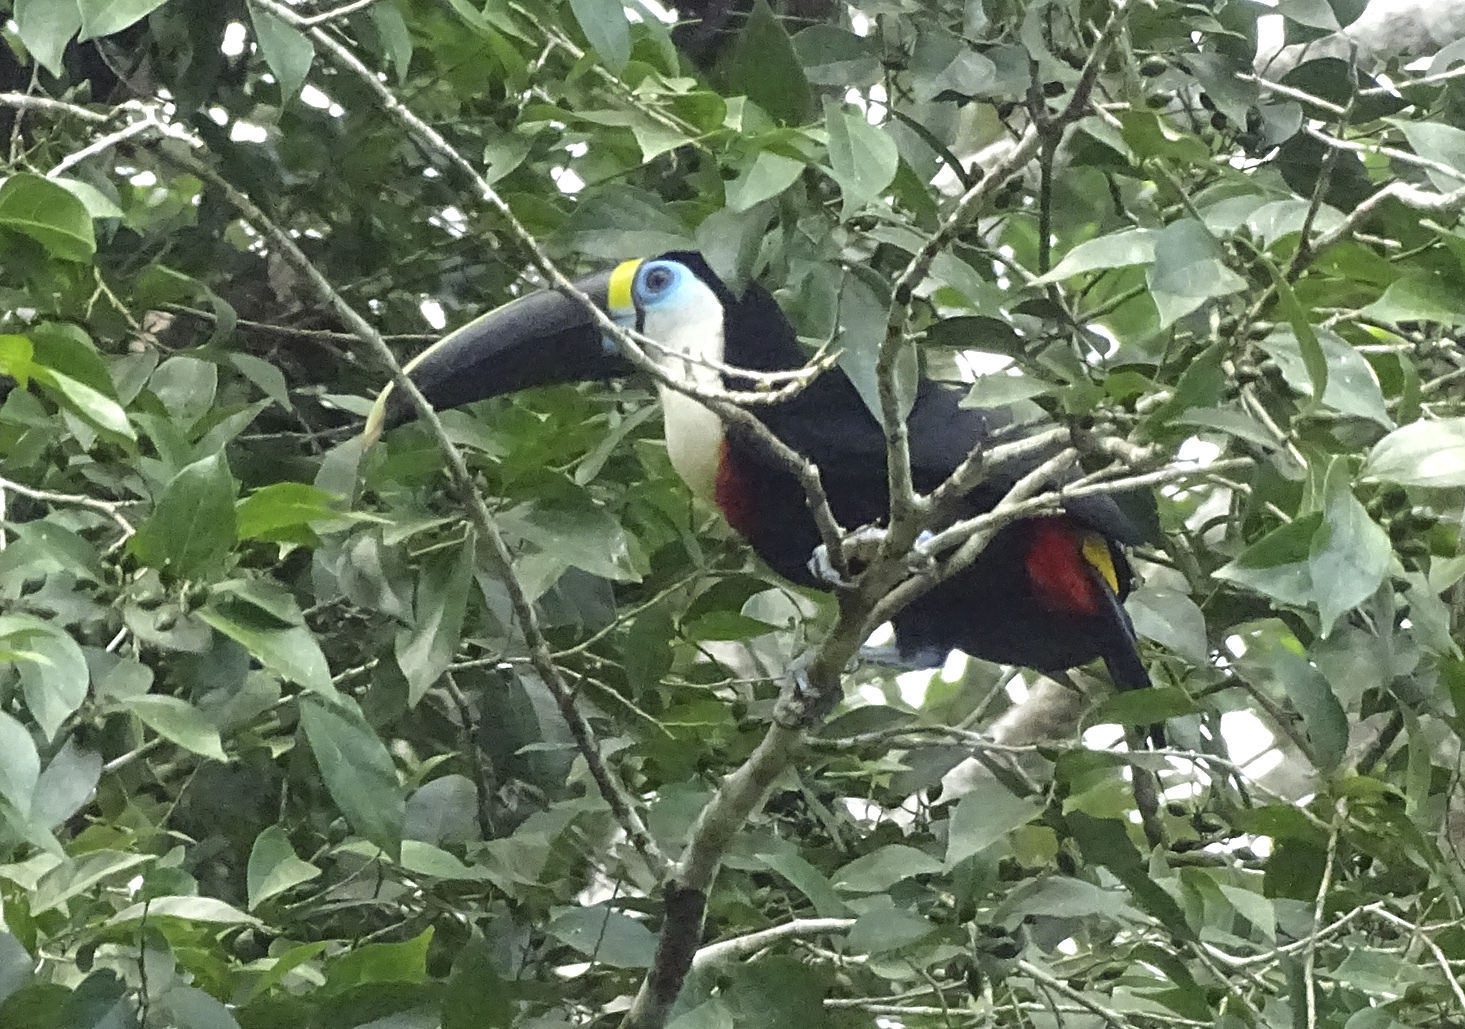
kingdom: Animalia
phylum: Chordata
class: Aves
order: Piciformes
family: Ramphastidae
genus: Ramphastos
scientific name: Ramphastos tucanus
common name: White-throated toucan
